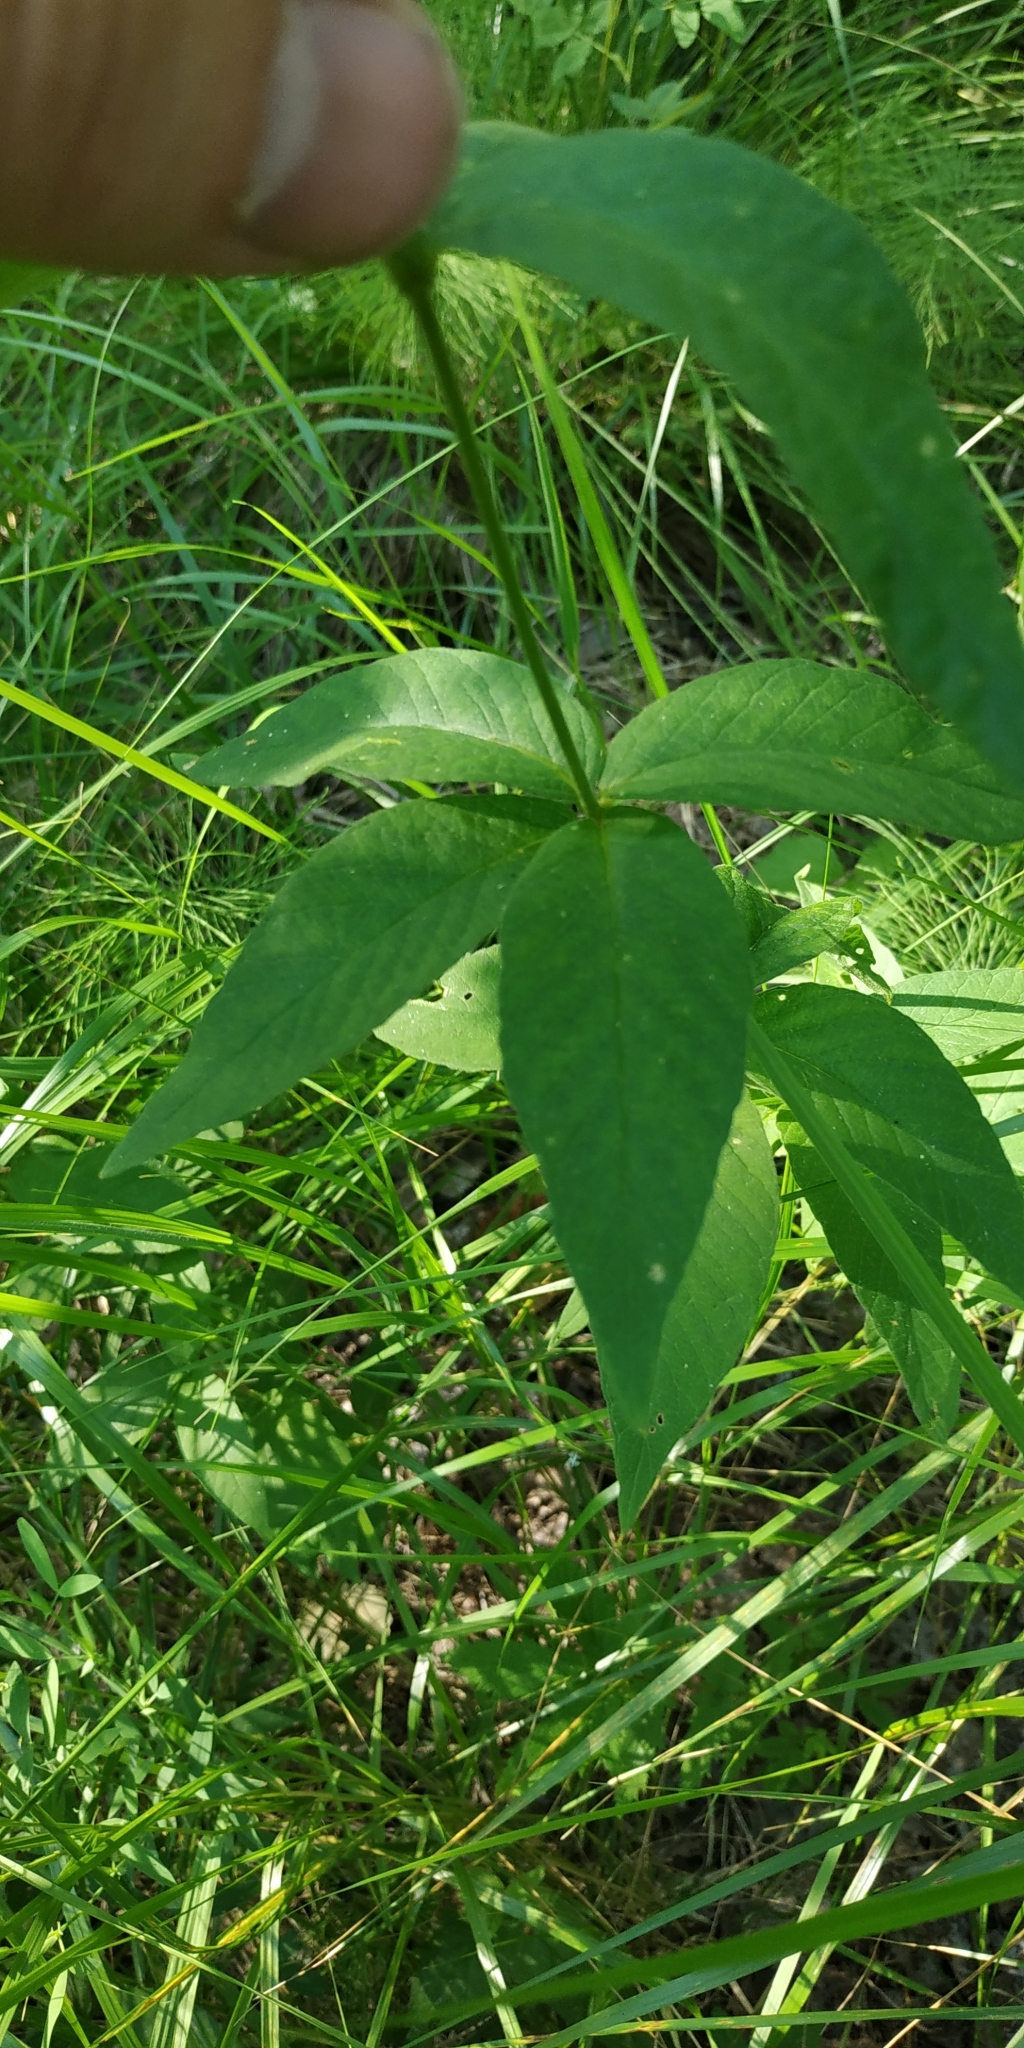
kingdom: Plantae
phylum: Tracheophyta
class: Magnoliopsida
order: Ericales
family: Primulaceae
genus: Lysimachia
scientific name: Lysimachia vulgaris
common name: Yellow loosestrife
